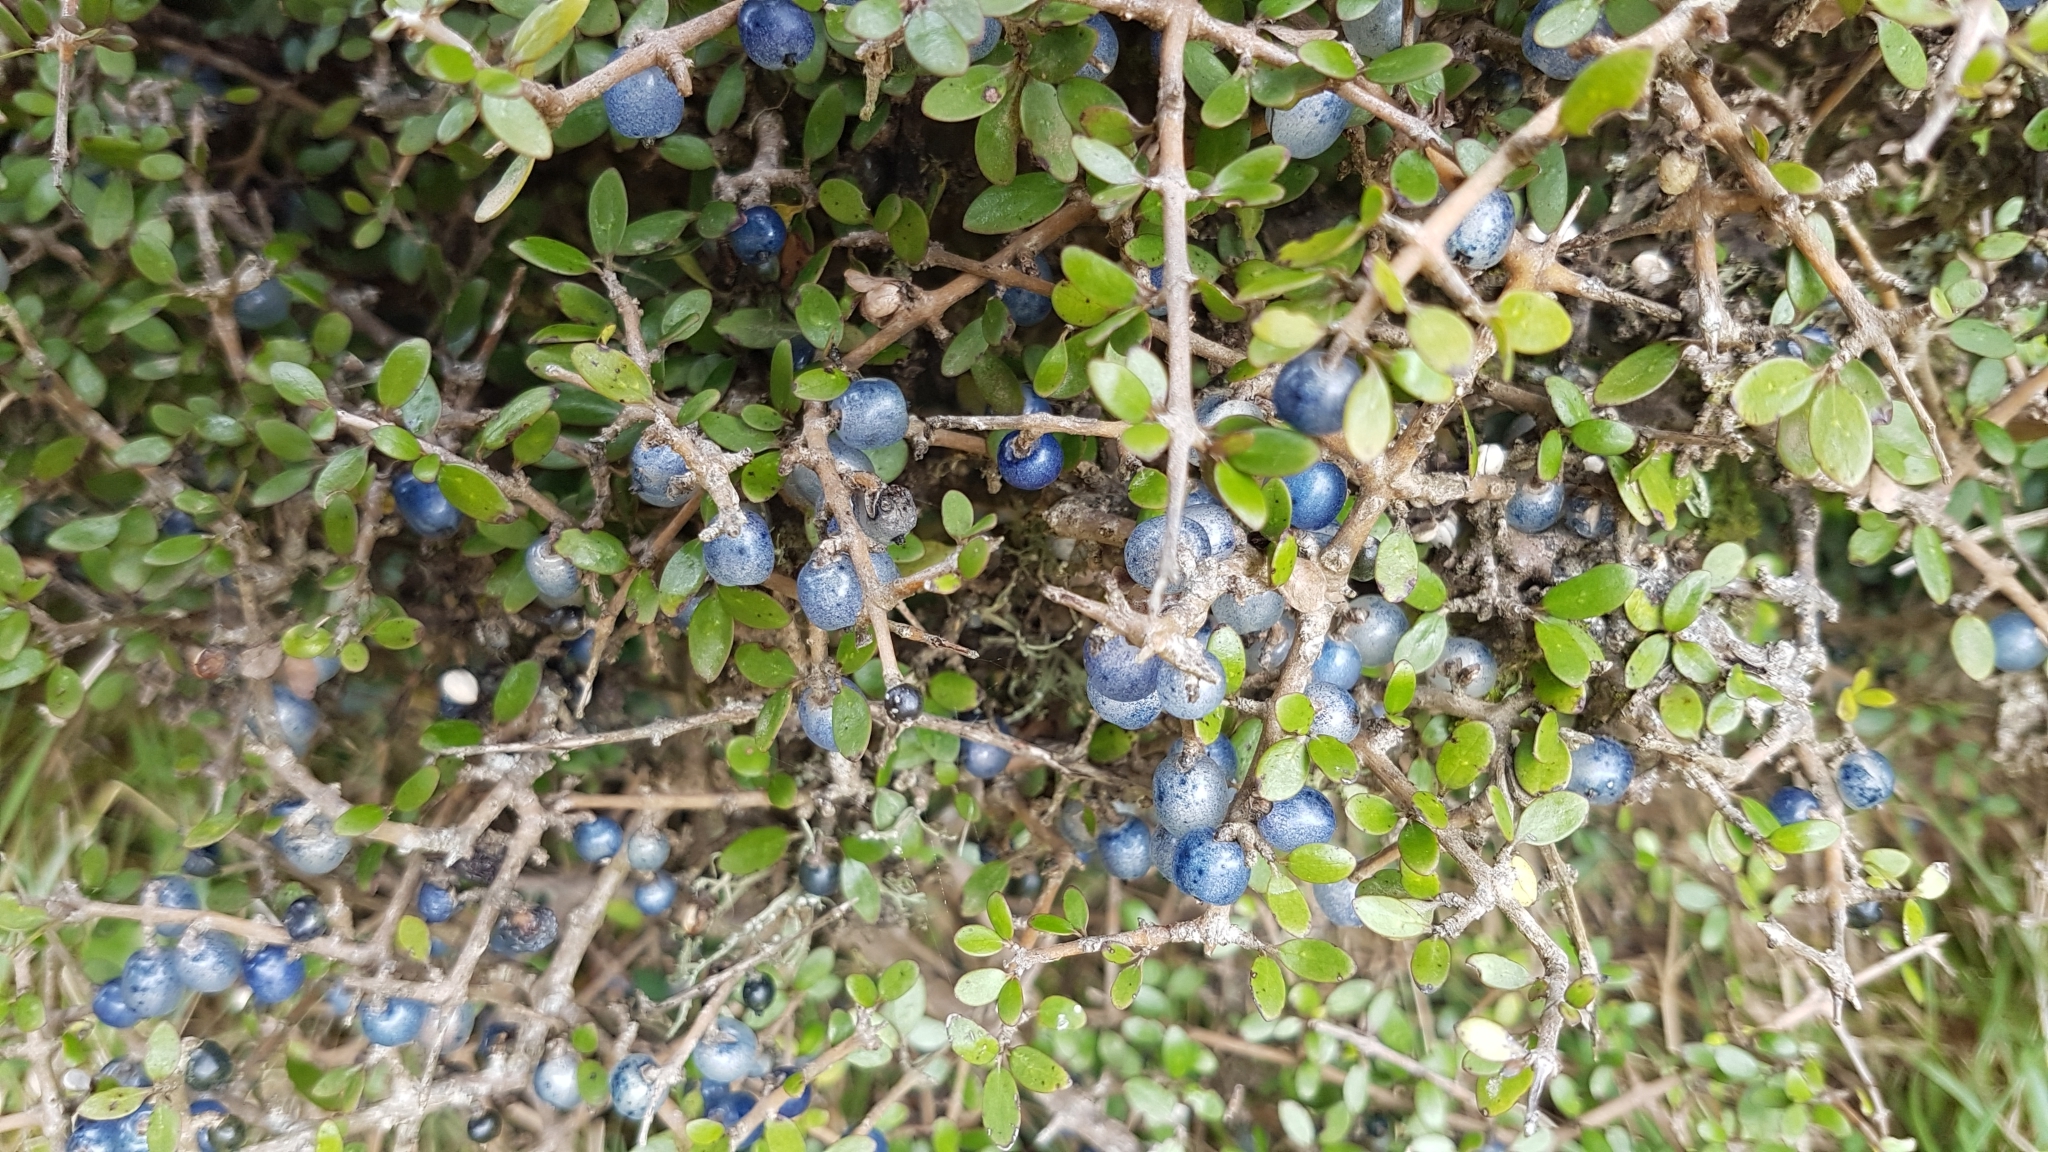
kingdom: Plantae
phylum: Tracheophyta
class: Magnoliopsida
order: Gentianales
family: Rubiaceae
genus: Coprosma
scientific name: Coprosma propinqua
